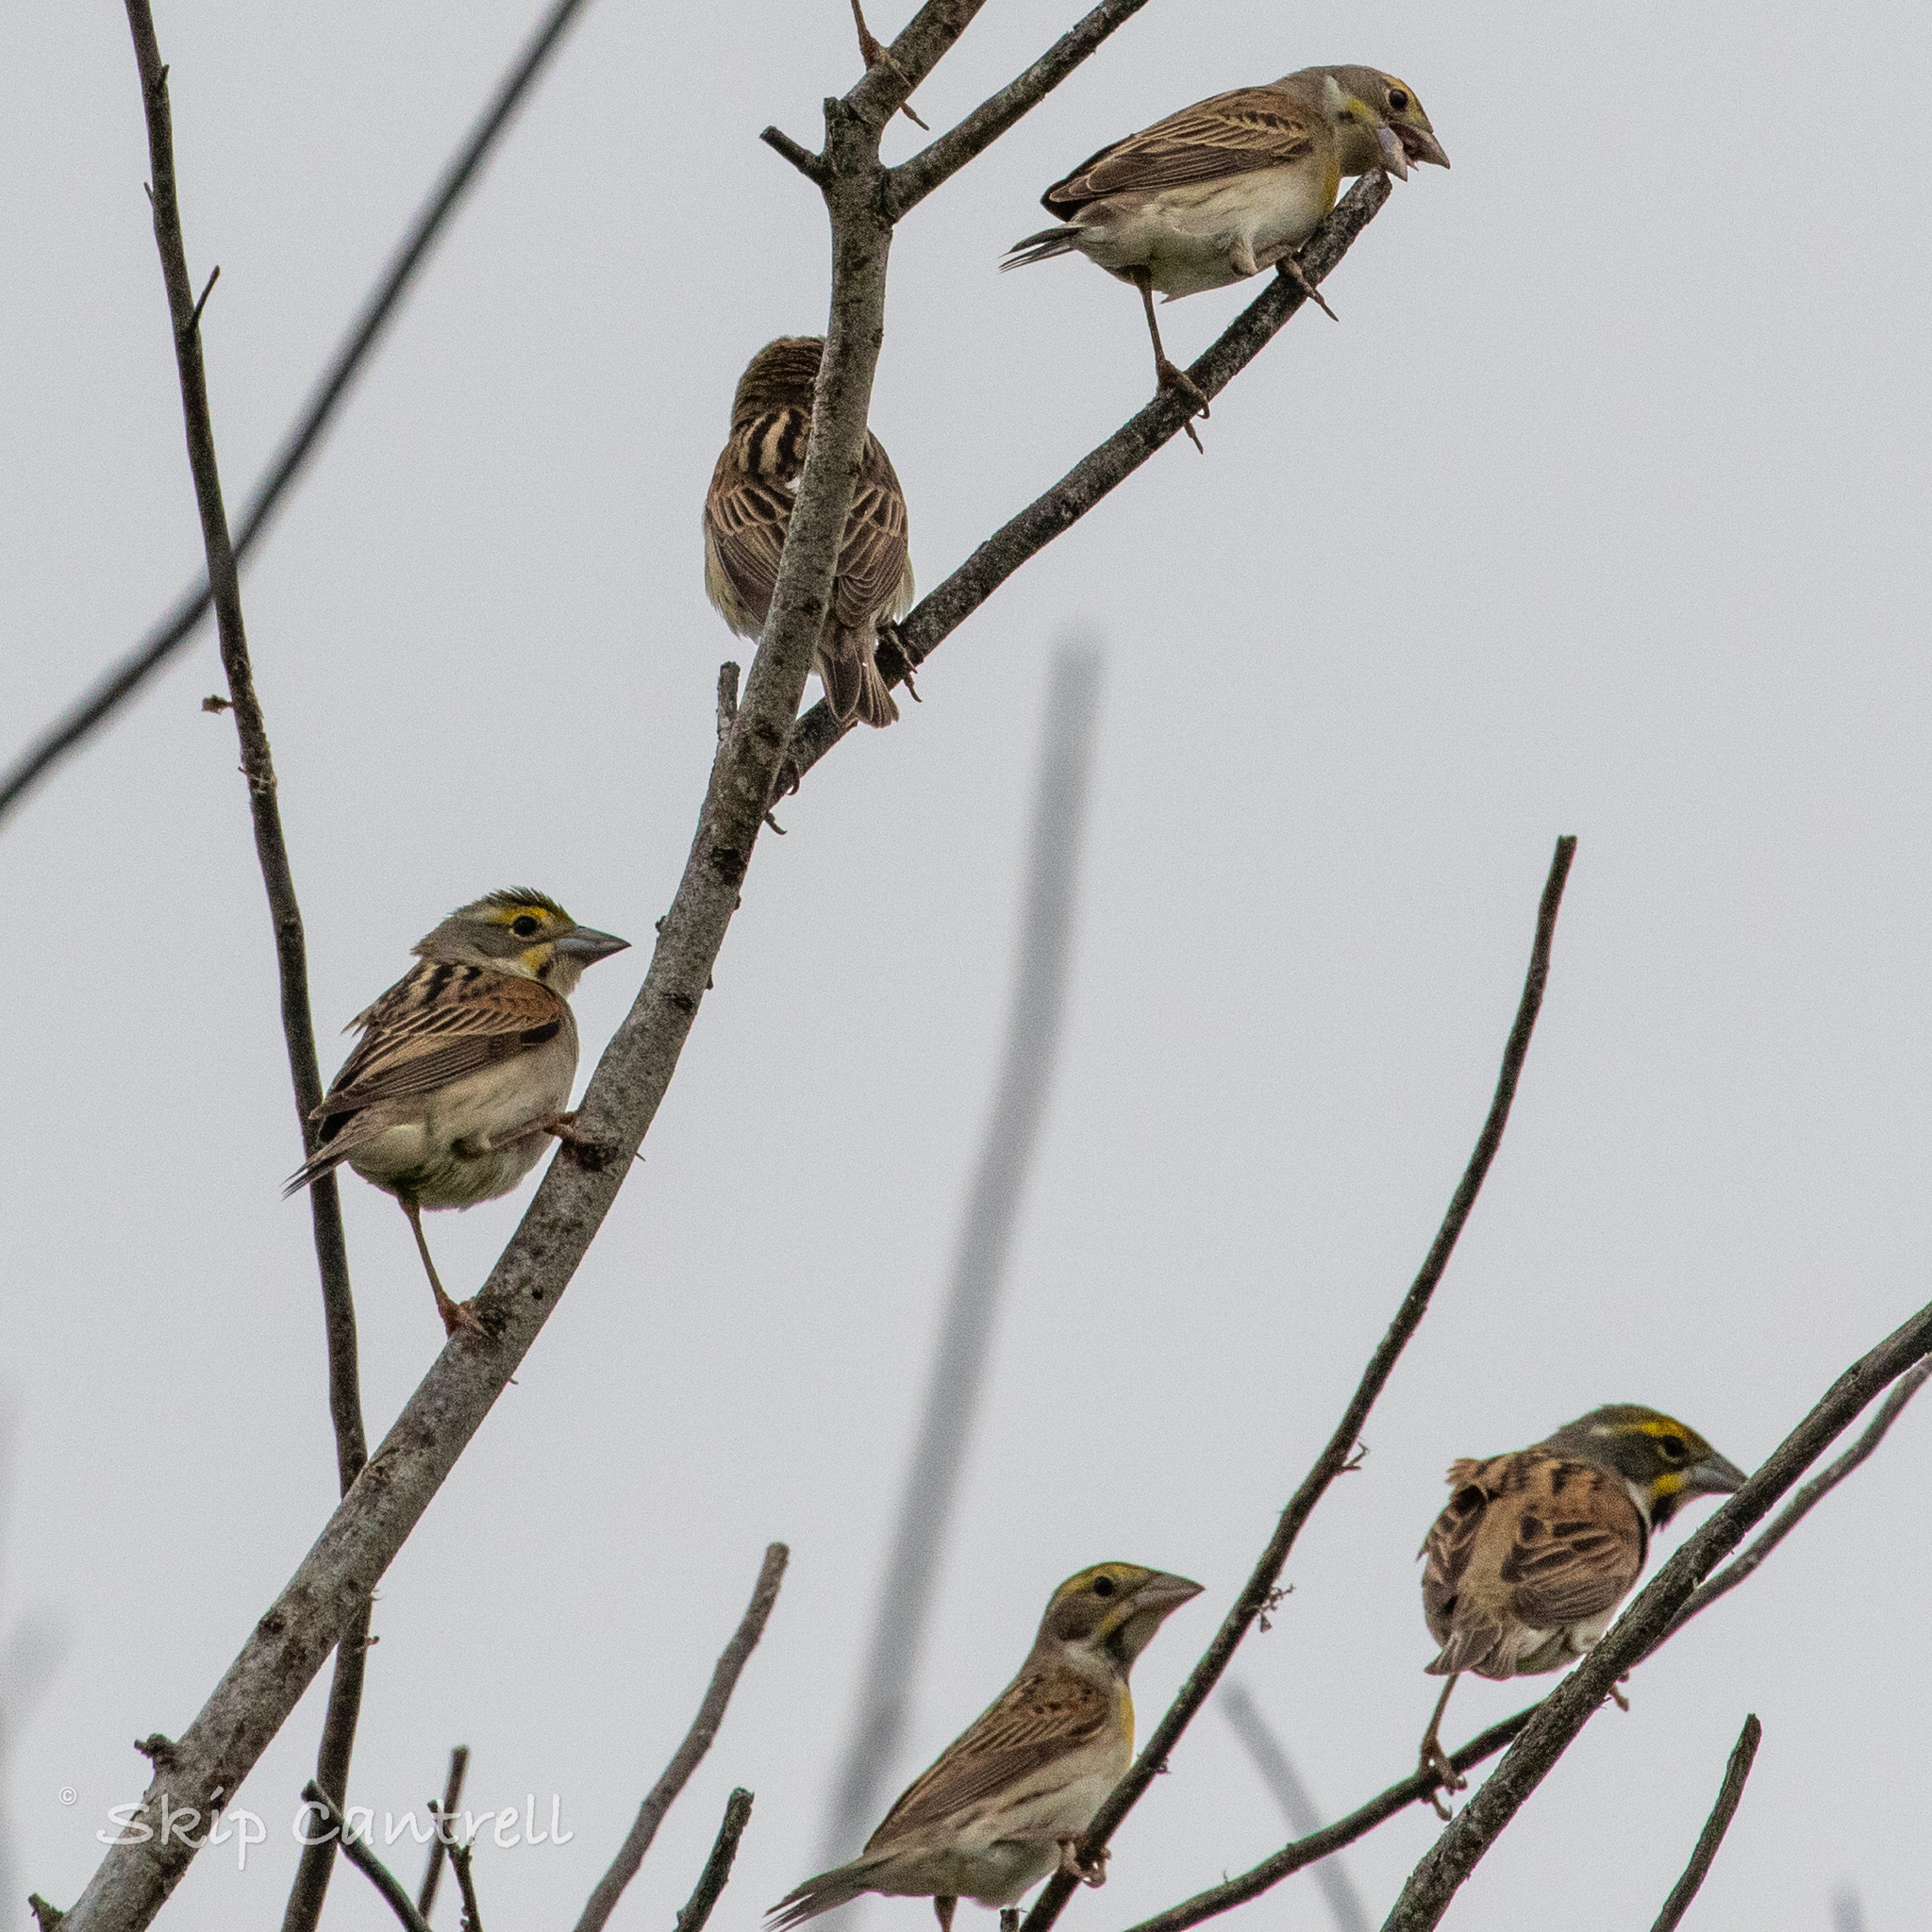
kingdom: Animalia
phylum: Chordata
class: Aves
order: Passeriformes
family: Cardinalidae
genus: Spiza
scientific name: Spiza americana
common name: Dickcissel
